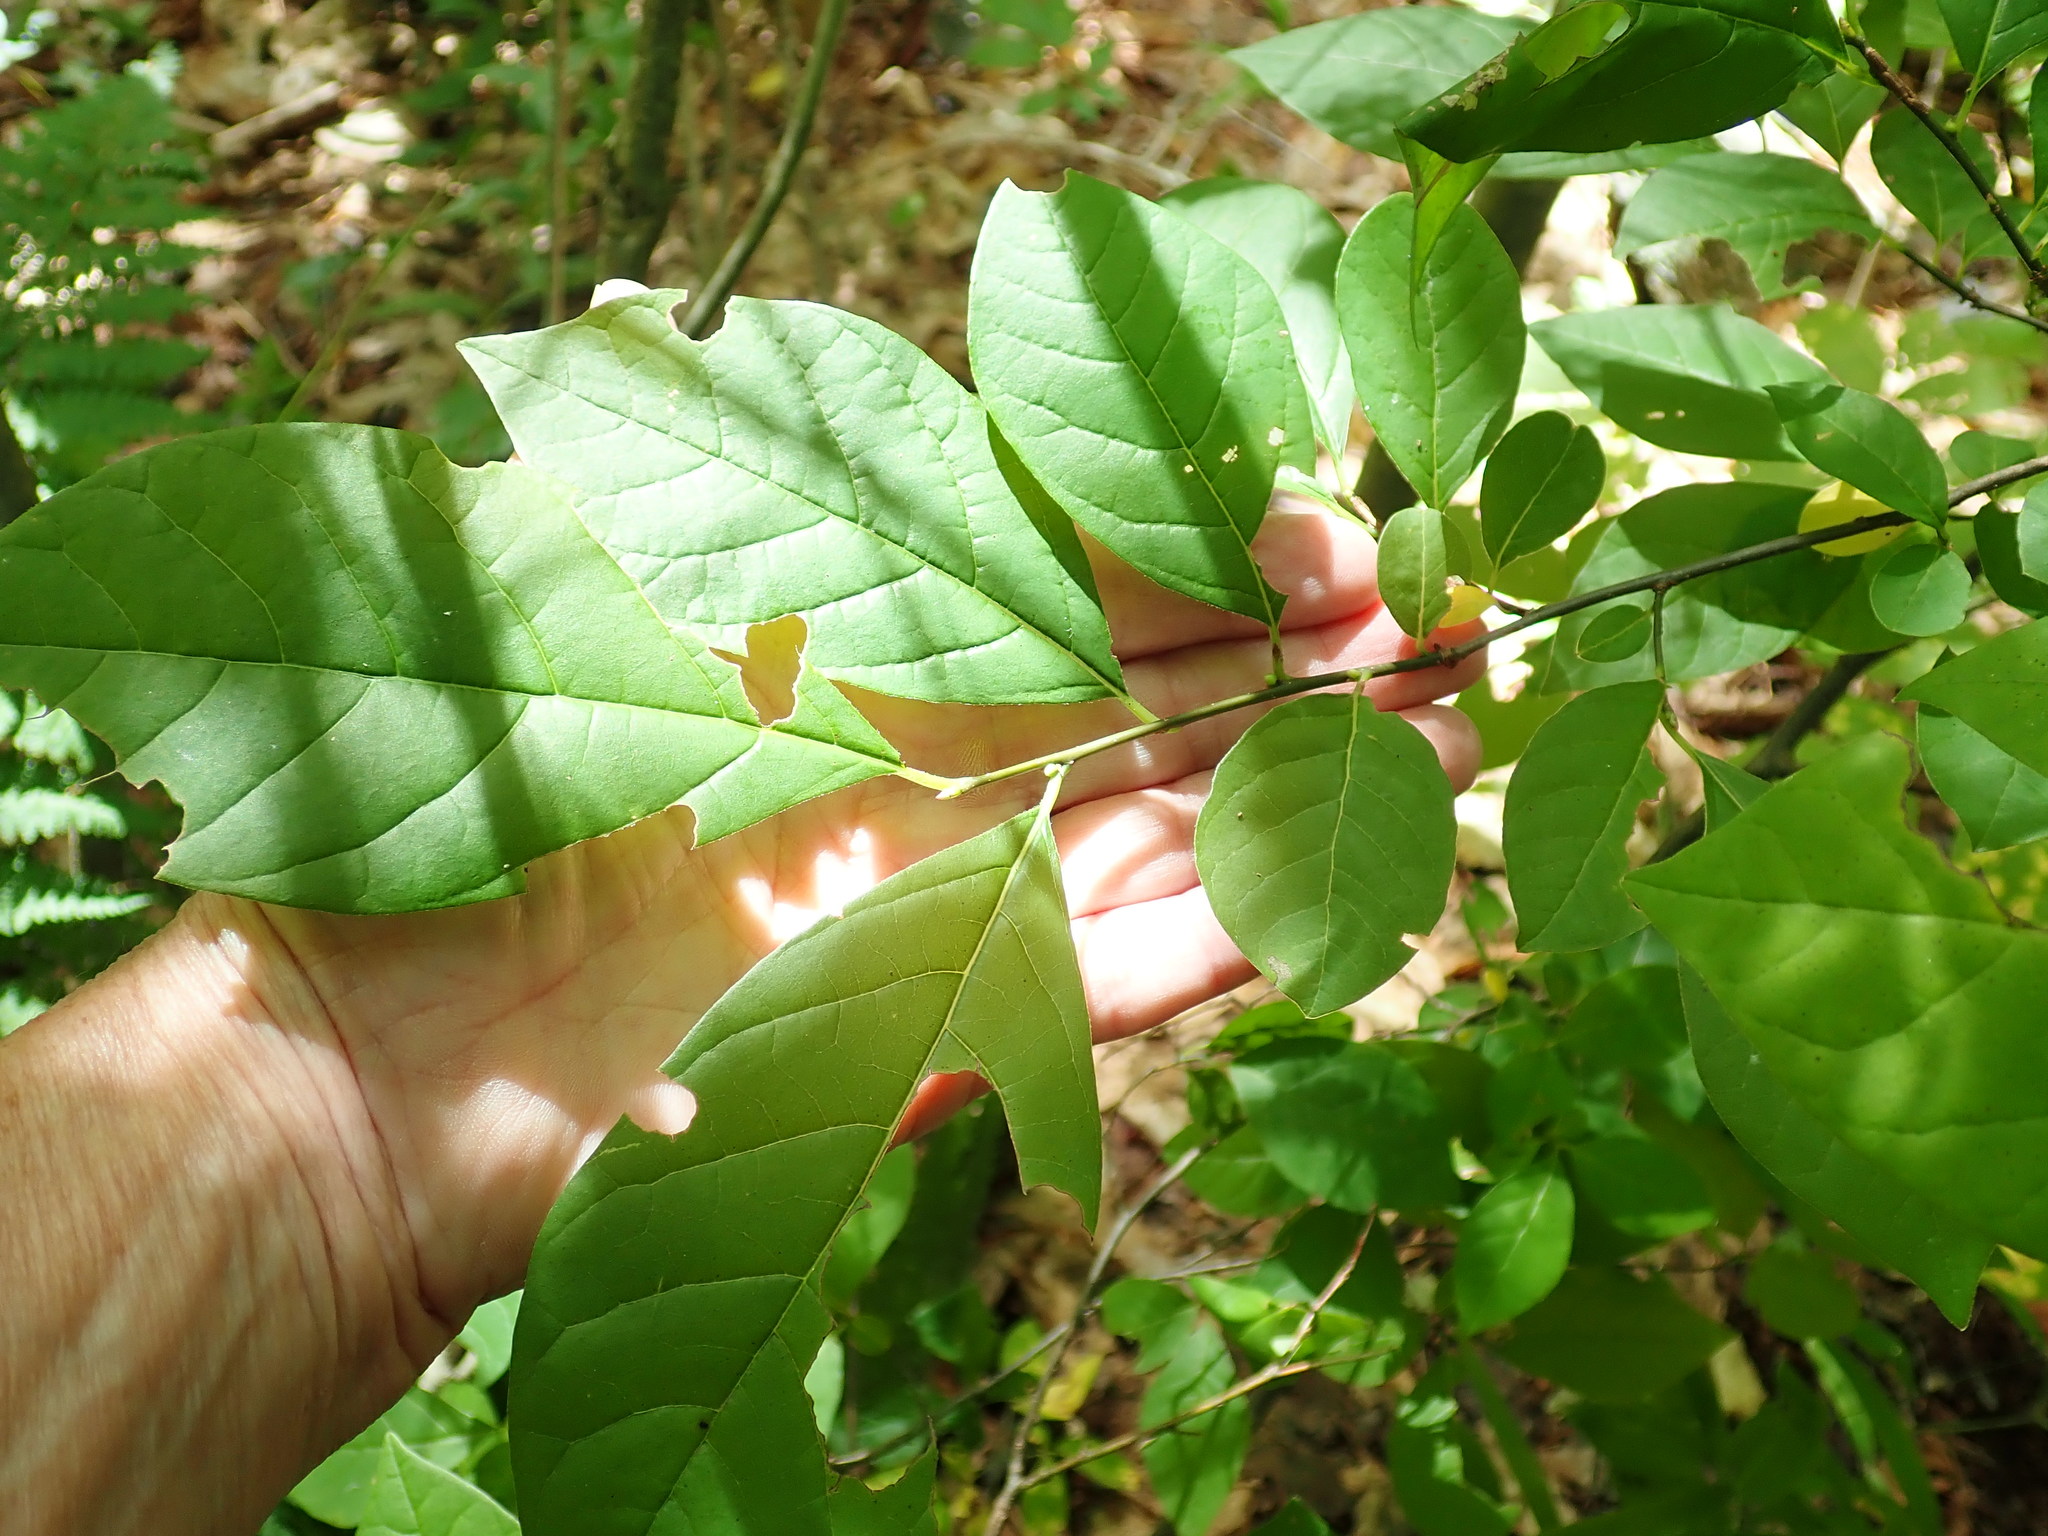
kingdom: Plantae
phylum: Tracheophyta
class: Magnoliopsida
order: Laurales
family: Lauraceae
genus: Lindera
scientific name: Lindera benzoin
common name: Spicebush
